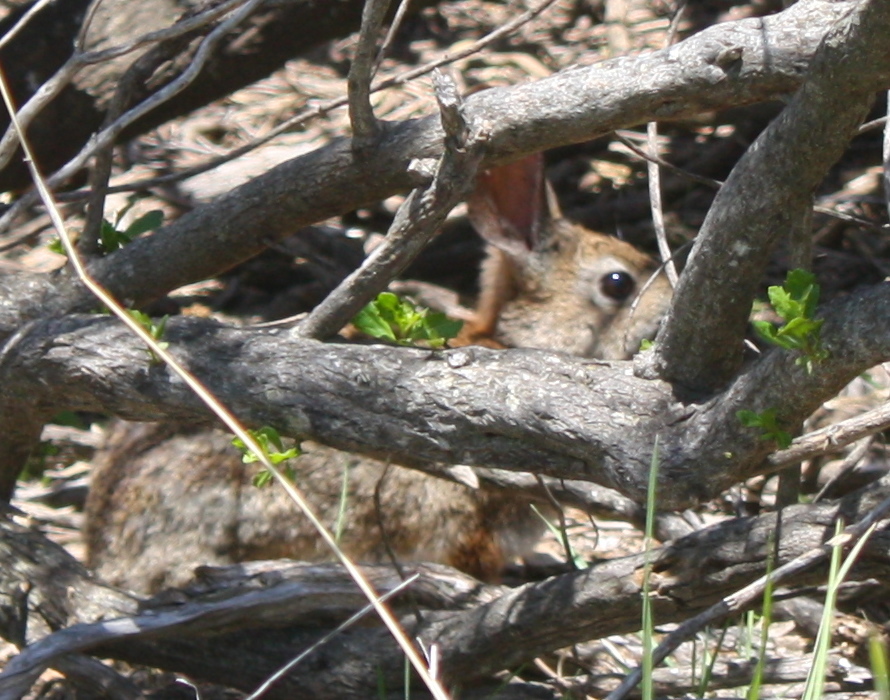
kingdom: Animalia
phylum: Chordata
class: Mammalia
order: Lagomorpha
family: Leporidae
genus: Sylvilagus
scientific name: Sylvilagus bachmani
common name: Brush rabbit
